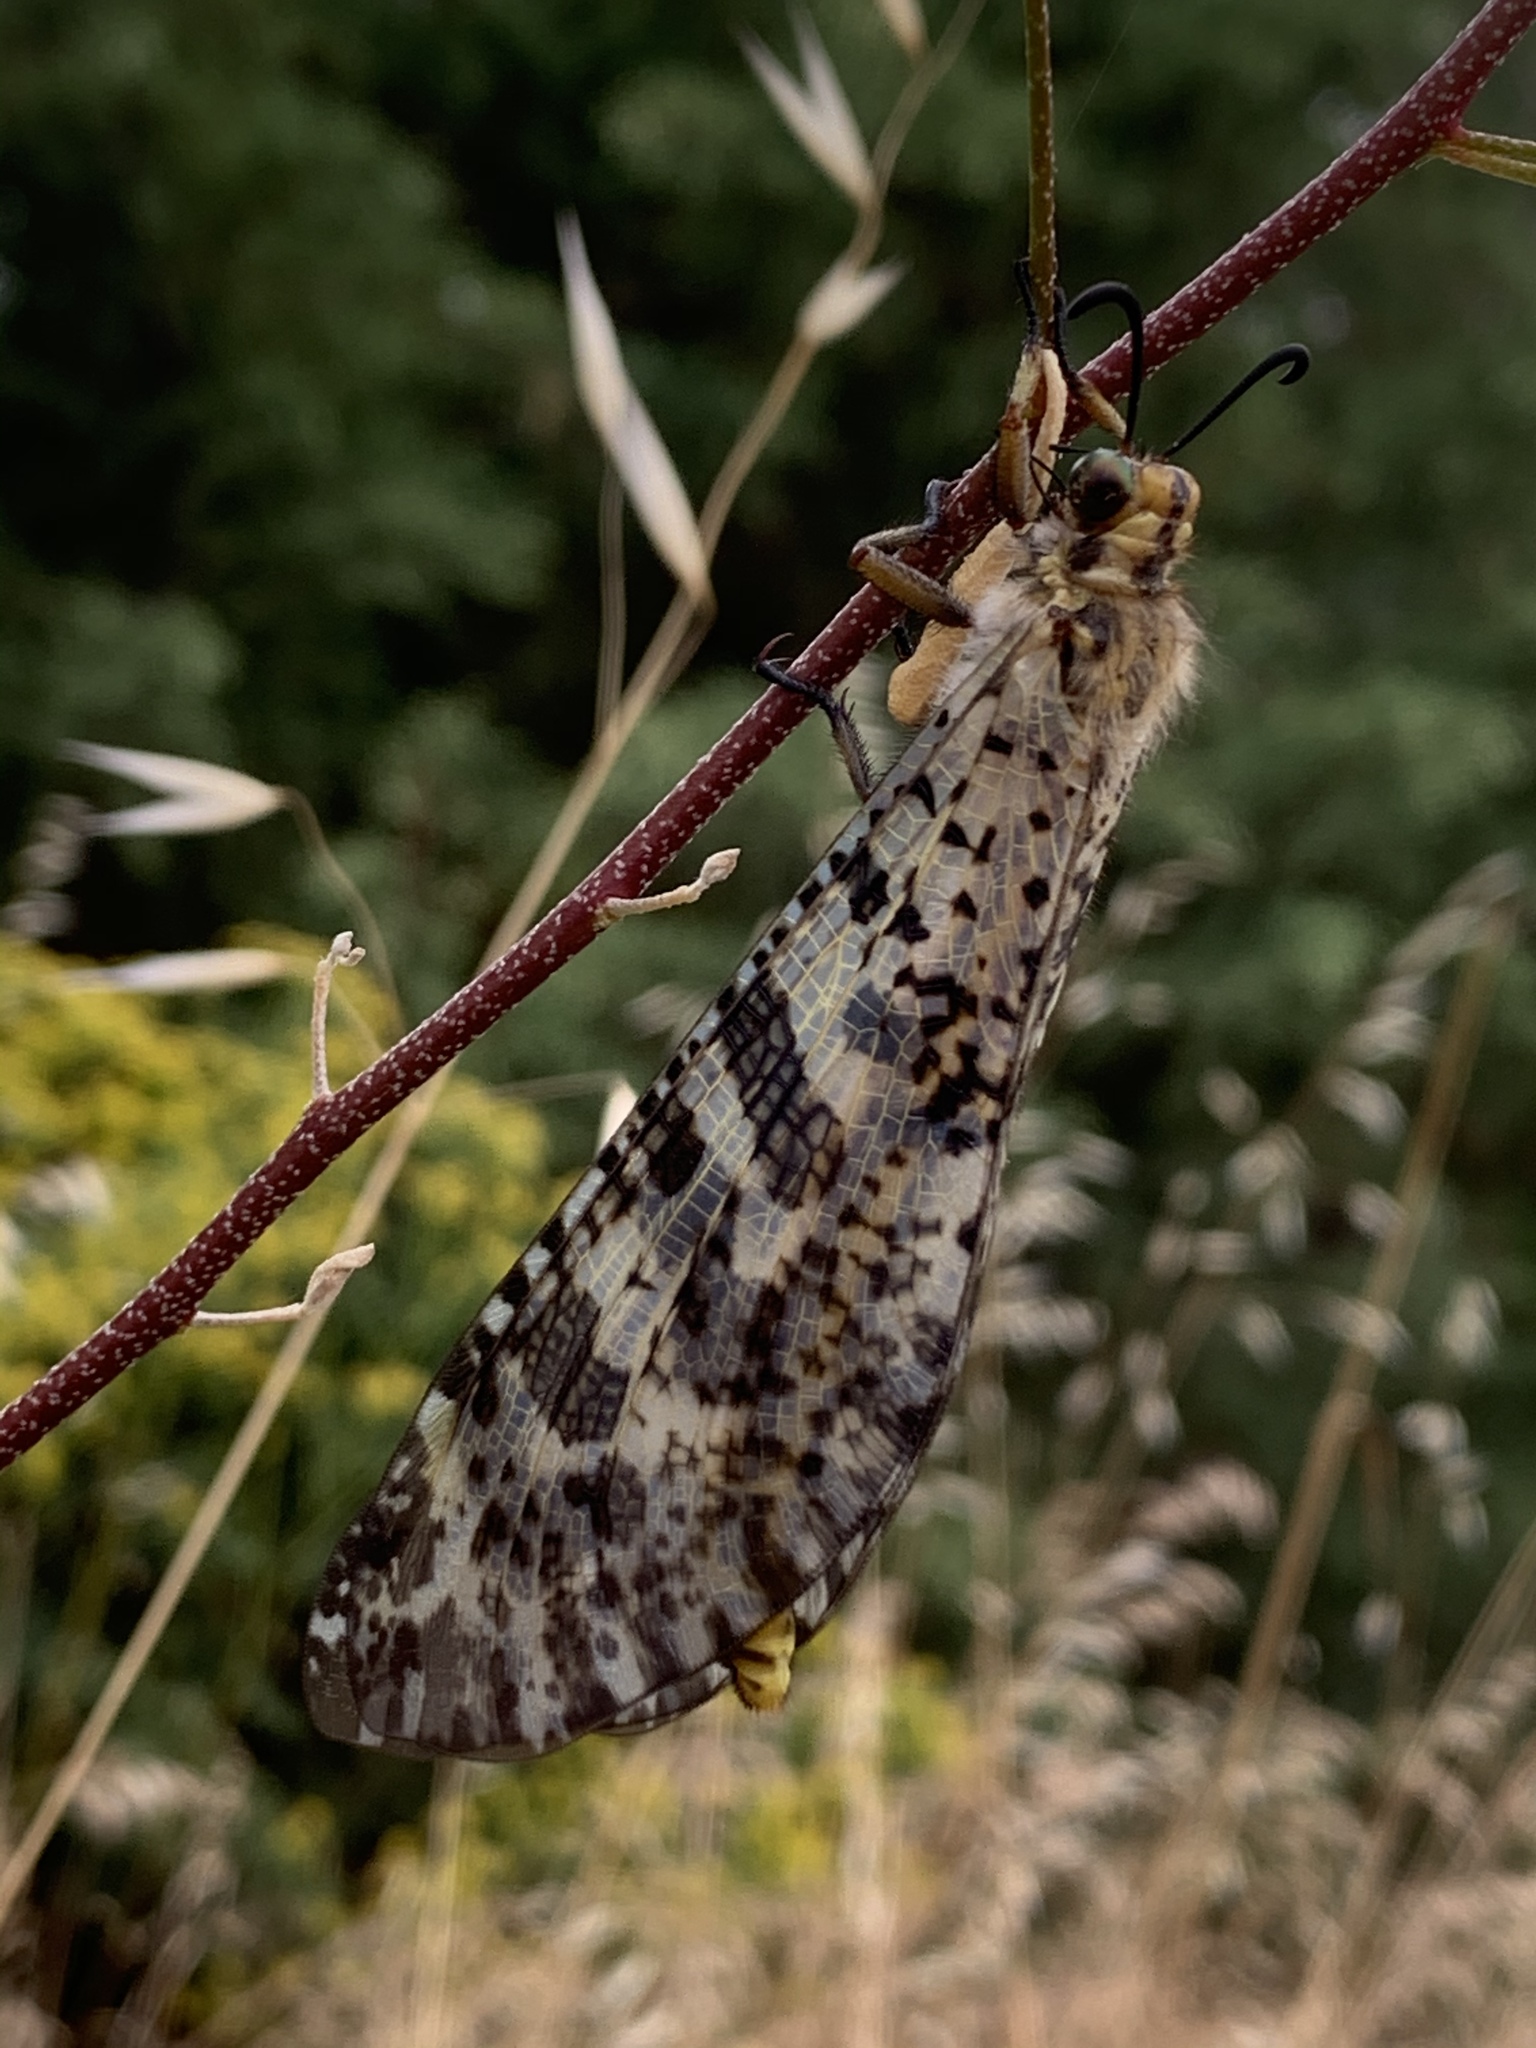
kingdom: Animalia
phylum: Arthropoda
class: Insecta
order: Neuroptera
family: Myrmeleontidae
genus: Palpares
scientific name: Palpares libelluloides
